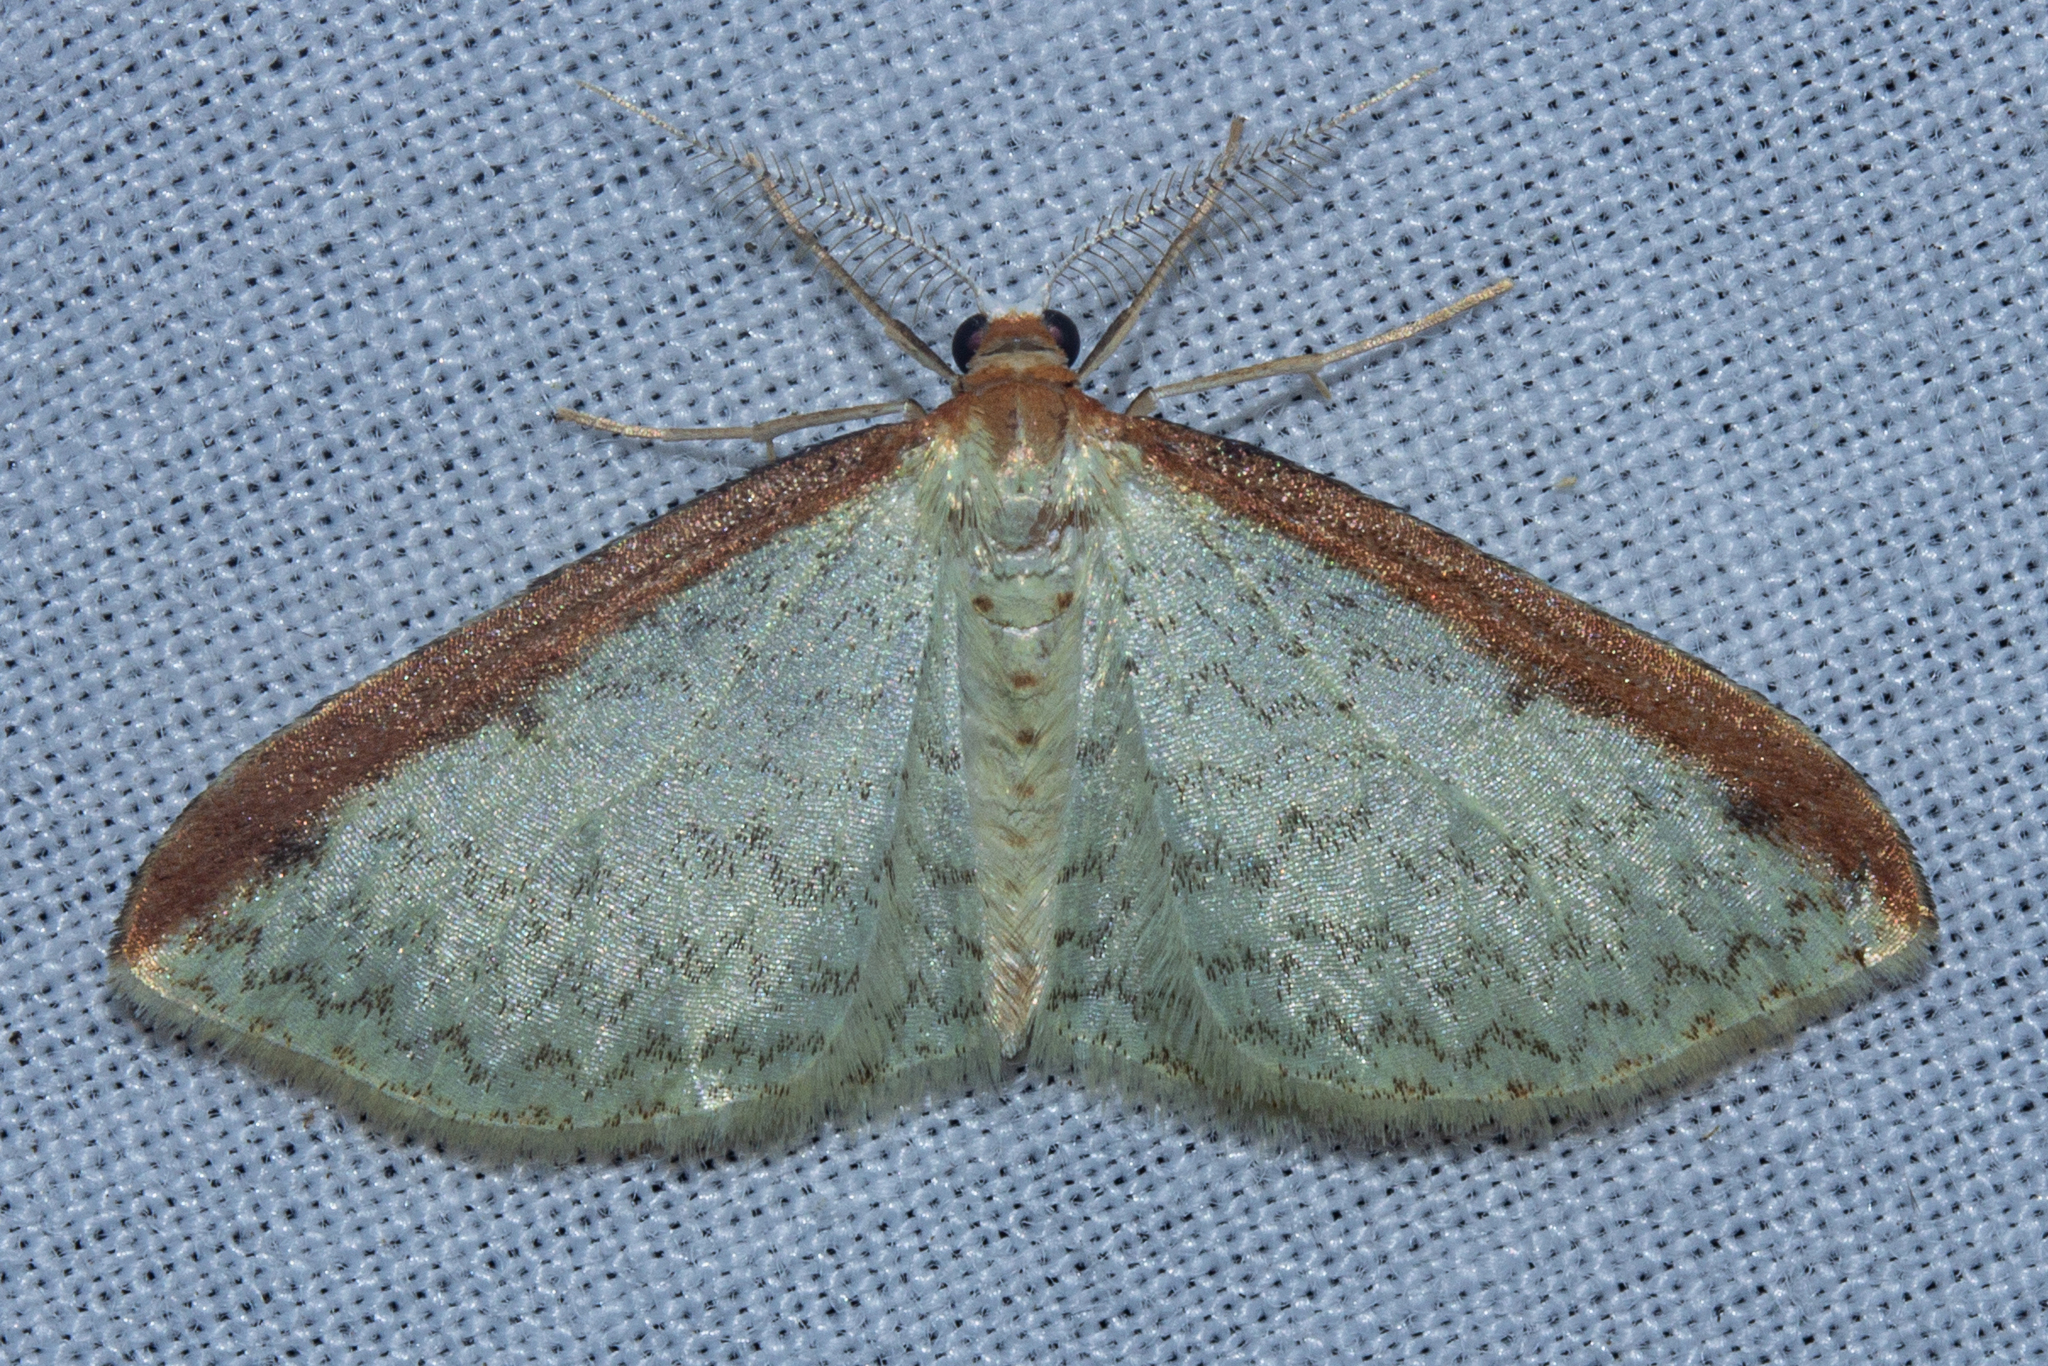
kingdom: Animalia
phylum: Arthropoda
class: Insecta
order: Lepidoptera
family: Geometridae
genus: Epiphryne
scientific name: Epiphryne undosata
